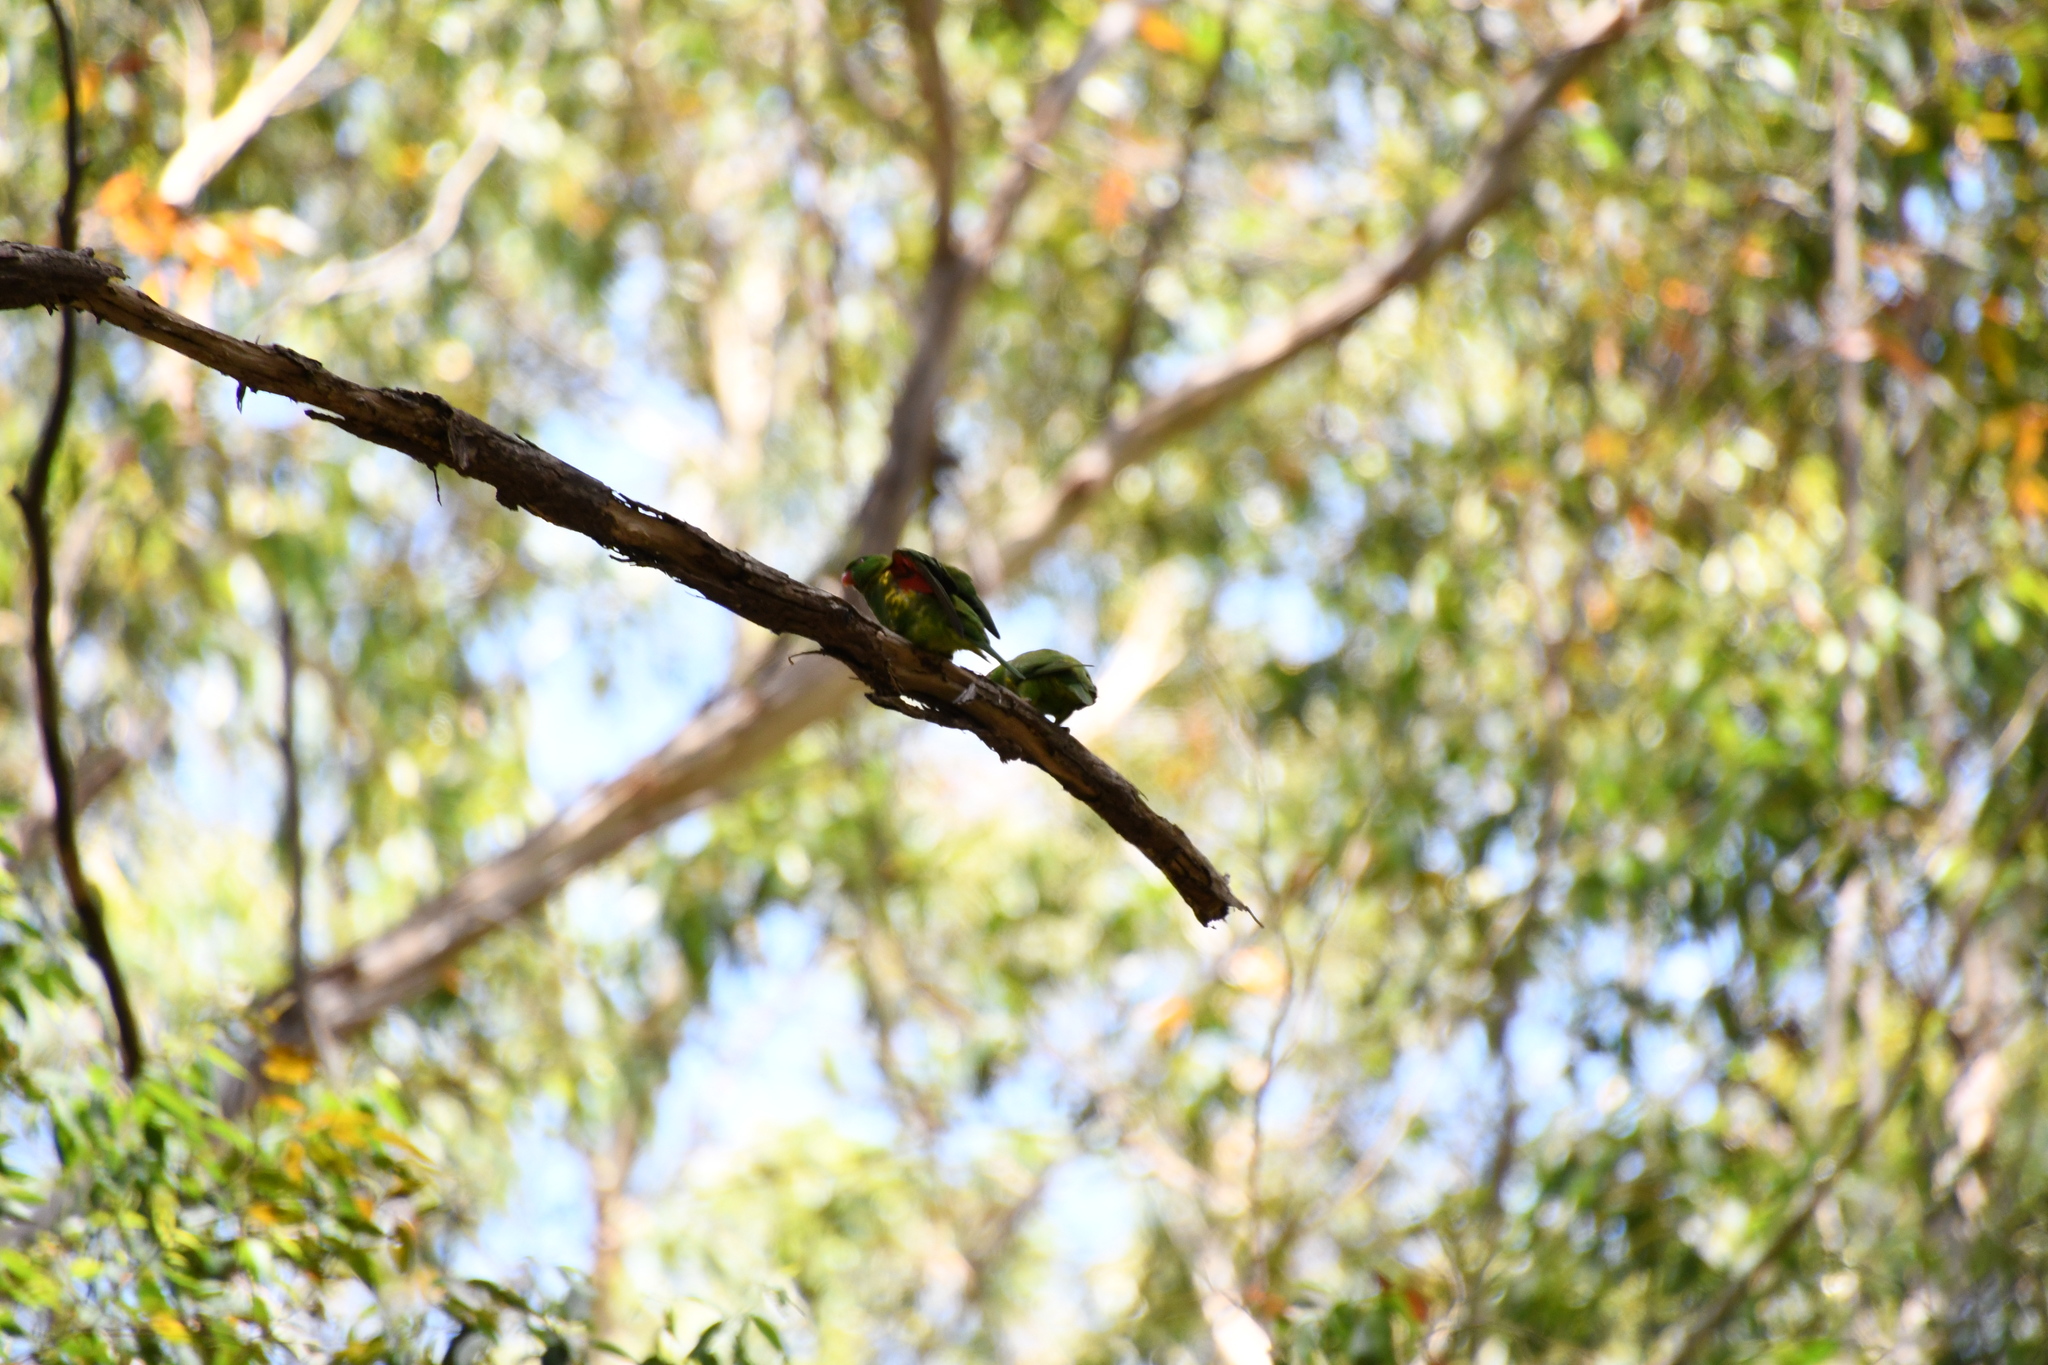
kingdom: Animalia
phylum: Chordata
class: Aves
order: Psittaciformes
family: Psittacidae
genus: Trichoglossus
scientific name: Trichoglossus chlorolepidotus
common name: Scaly-breasted lorikeet
